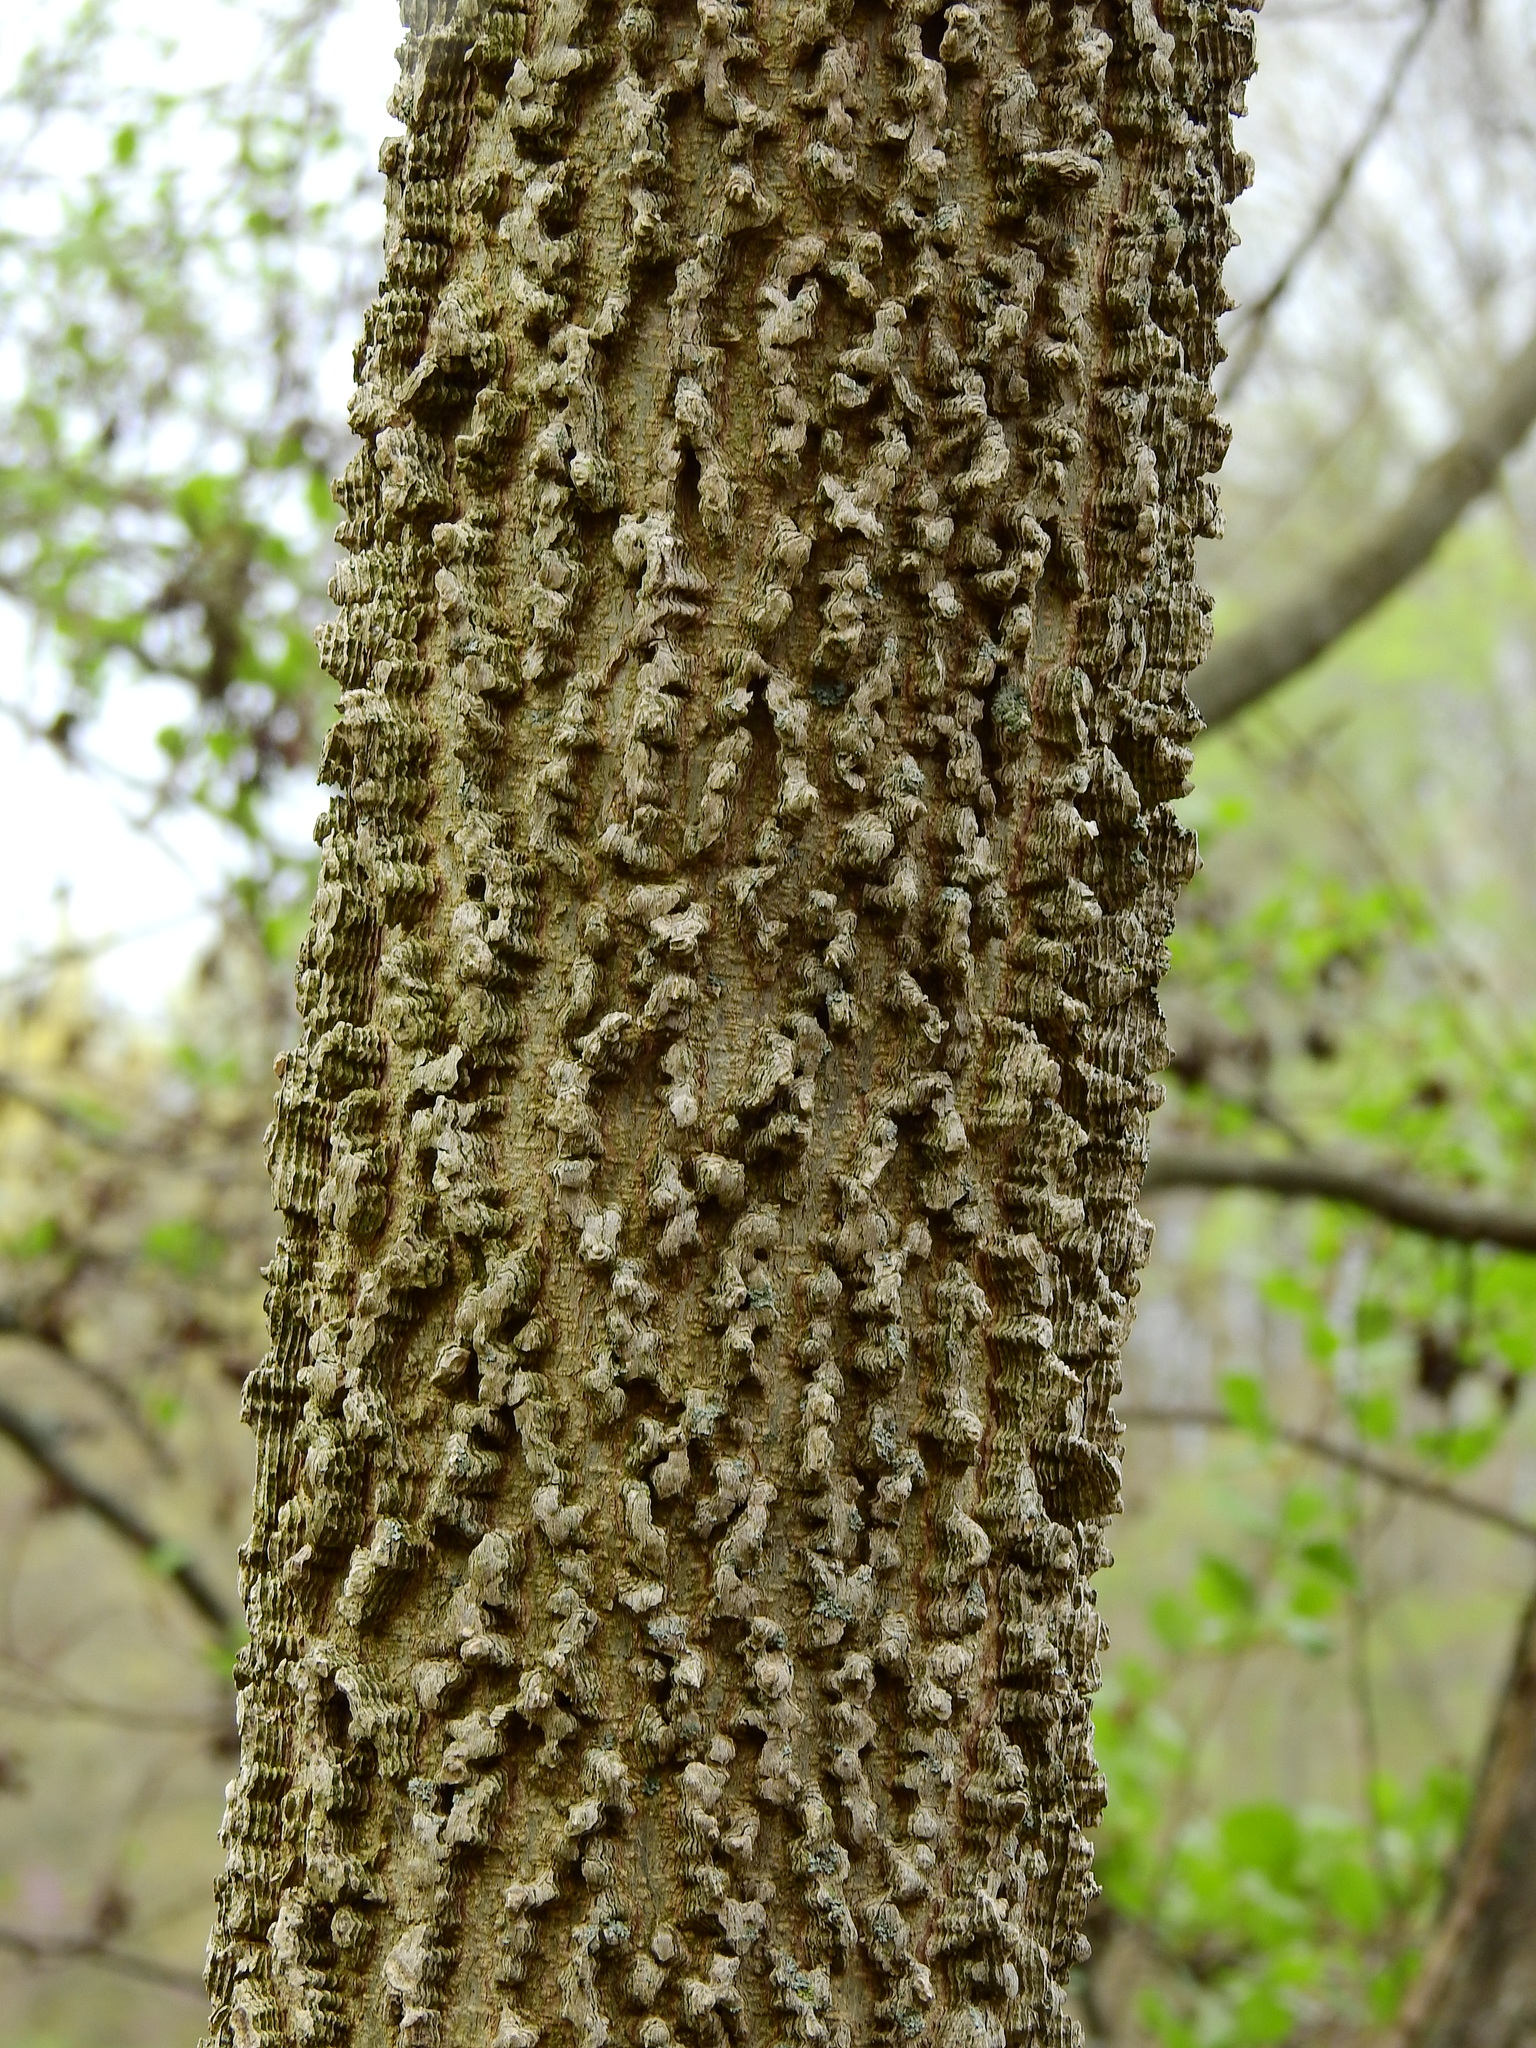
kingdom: Plantae
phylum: Tracheophyta
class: Magnoliopsida
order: Rosales
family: Cannabaceae
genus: Celtis
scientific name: Celtis occidentalis
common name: Common hackberry
